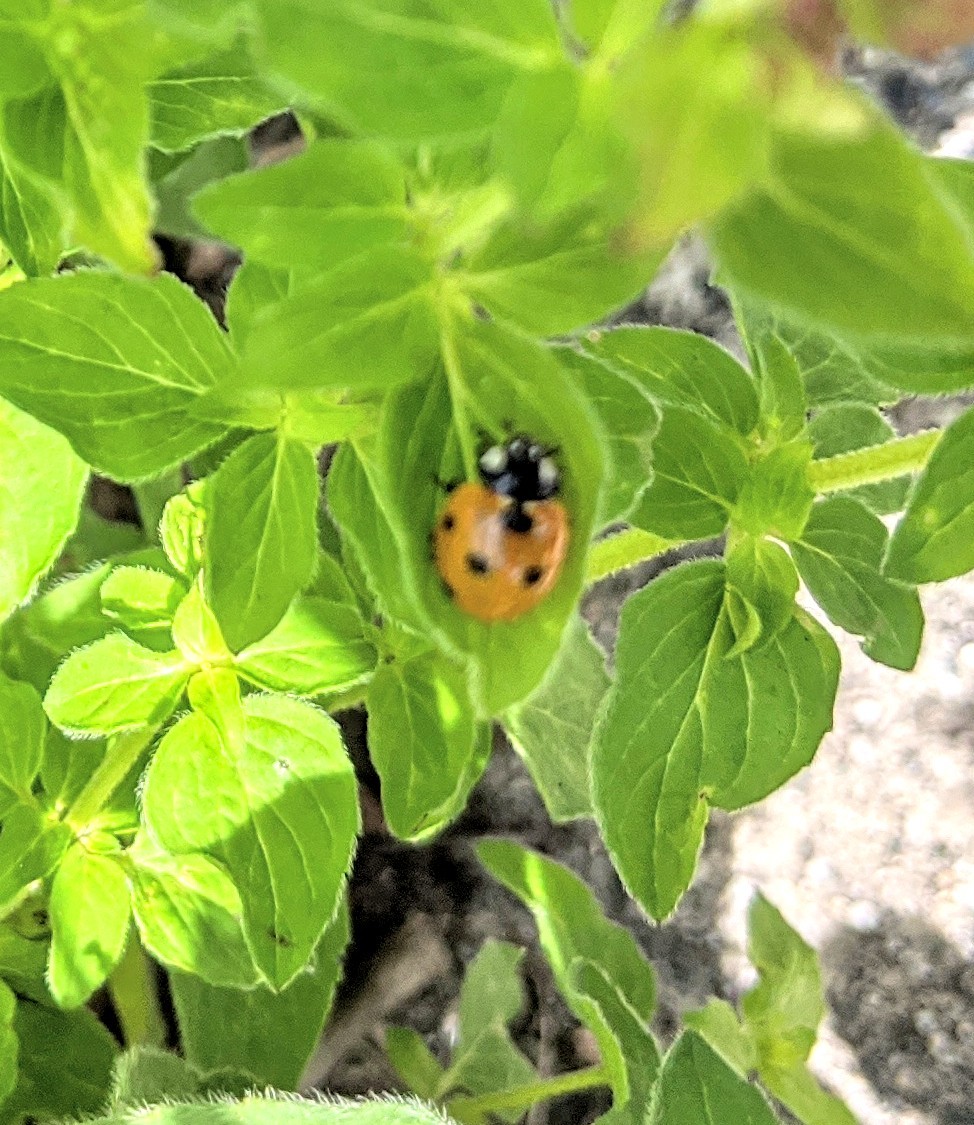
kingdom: Animalia
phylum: Arthropoda
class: Insecta
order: Coleoptera
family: Coccinellidae
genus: Coccinella
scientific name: Coccinella septempunctata
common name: Sevenspotted lady beetle
